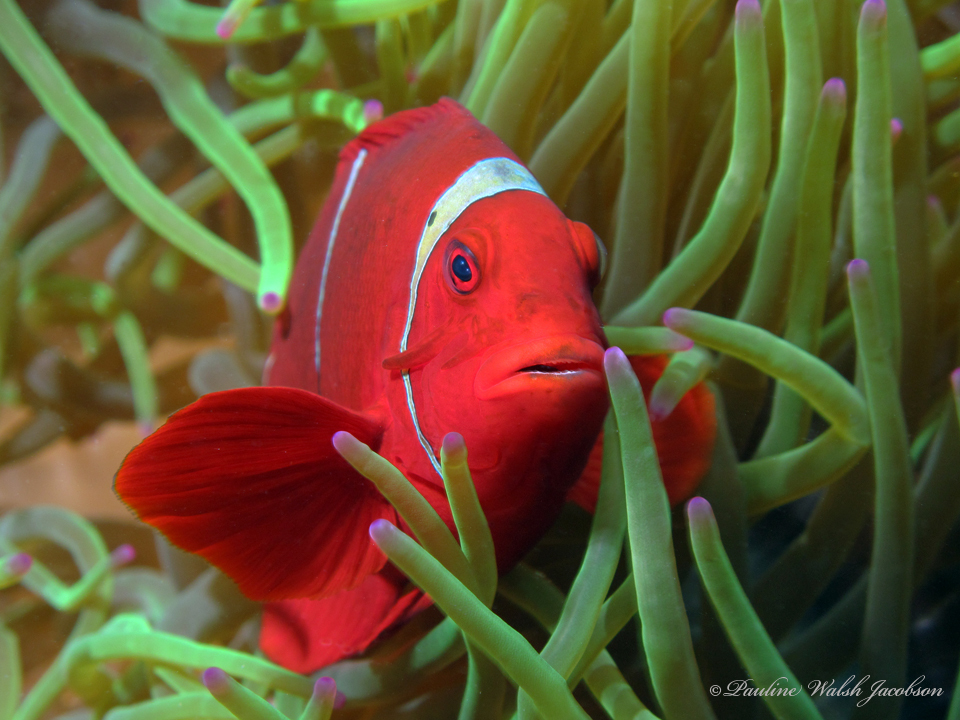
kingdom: Animalia
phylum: Chordata
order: Perciformes
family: Pomacentridae
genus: Premnas
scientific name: Premnas biaculeatus
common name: Spinecheek anemonefish
